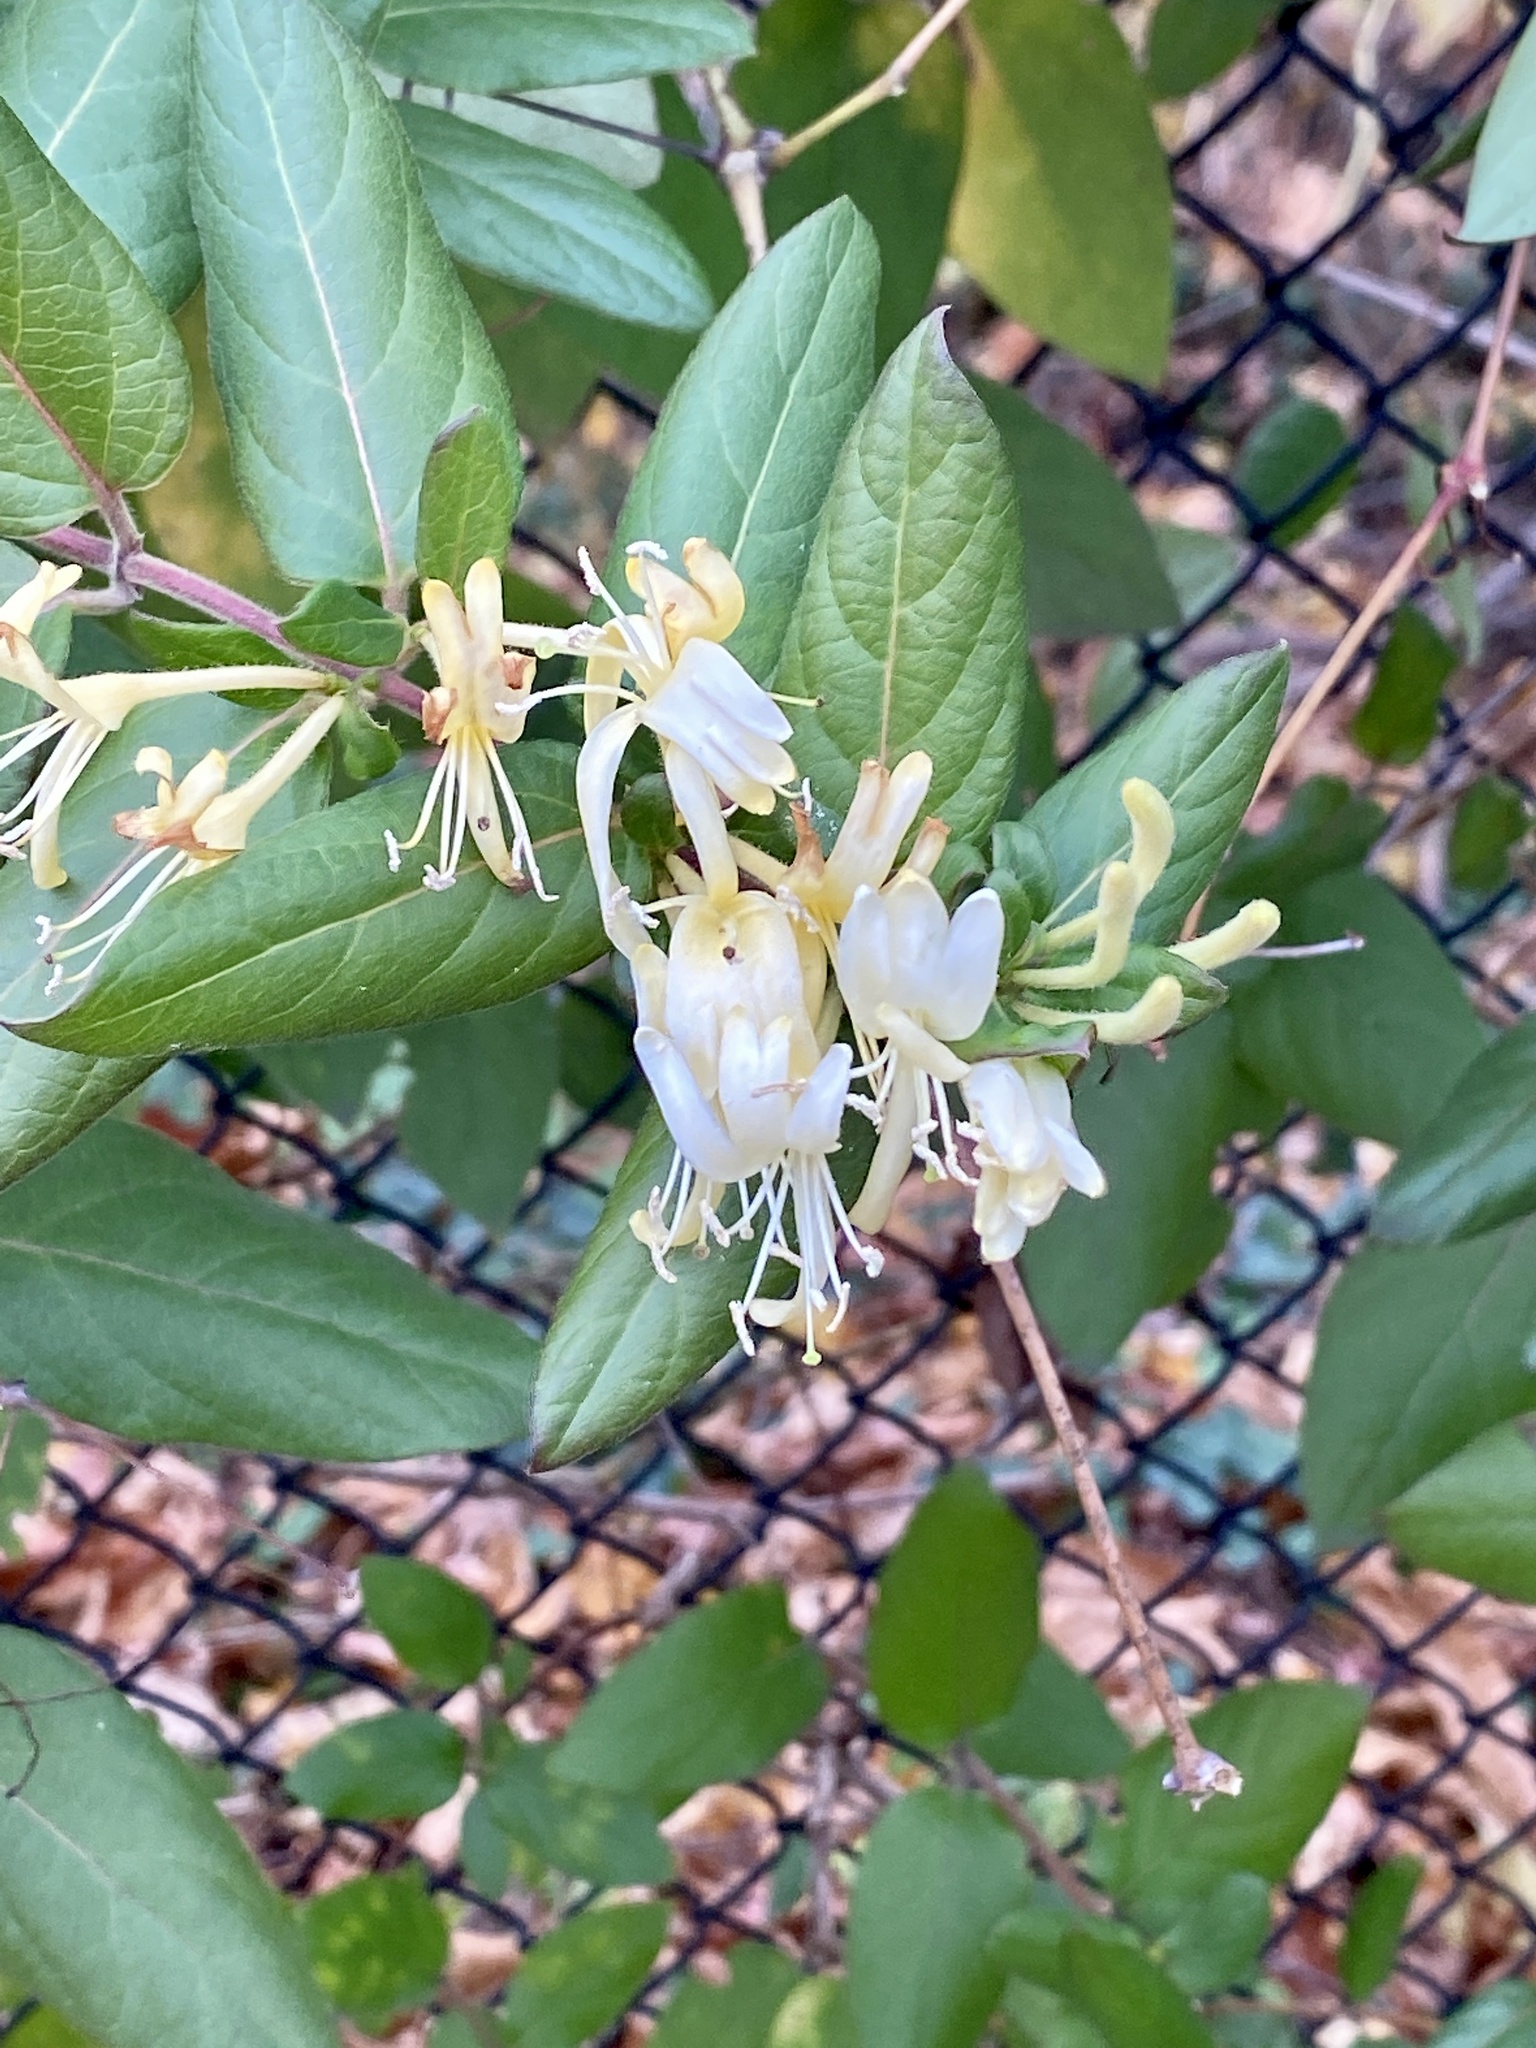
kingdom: Plantae
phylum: Tracheophyta
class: Magnoliopsida
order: Dipsacales
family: Caprifoliaceae
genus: Lonicera
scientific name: Lonicera japonica
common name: Japanese honeysuckle
